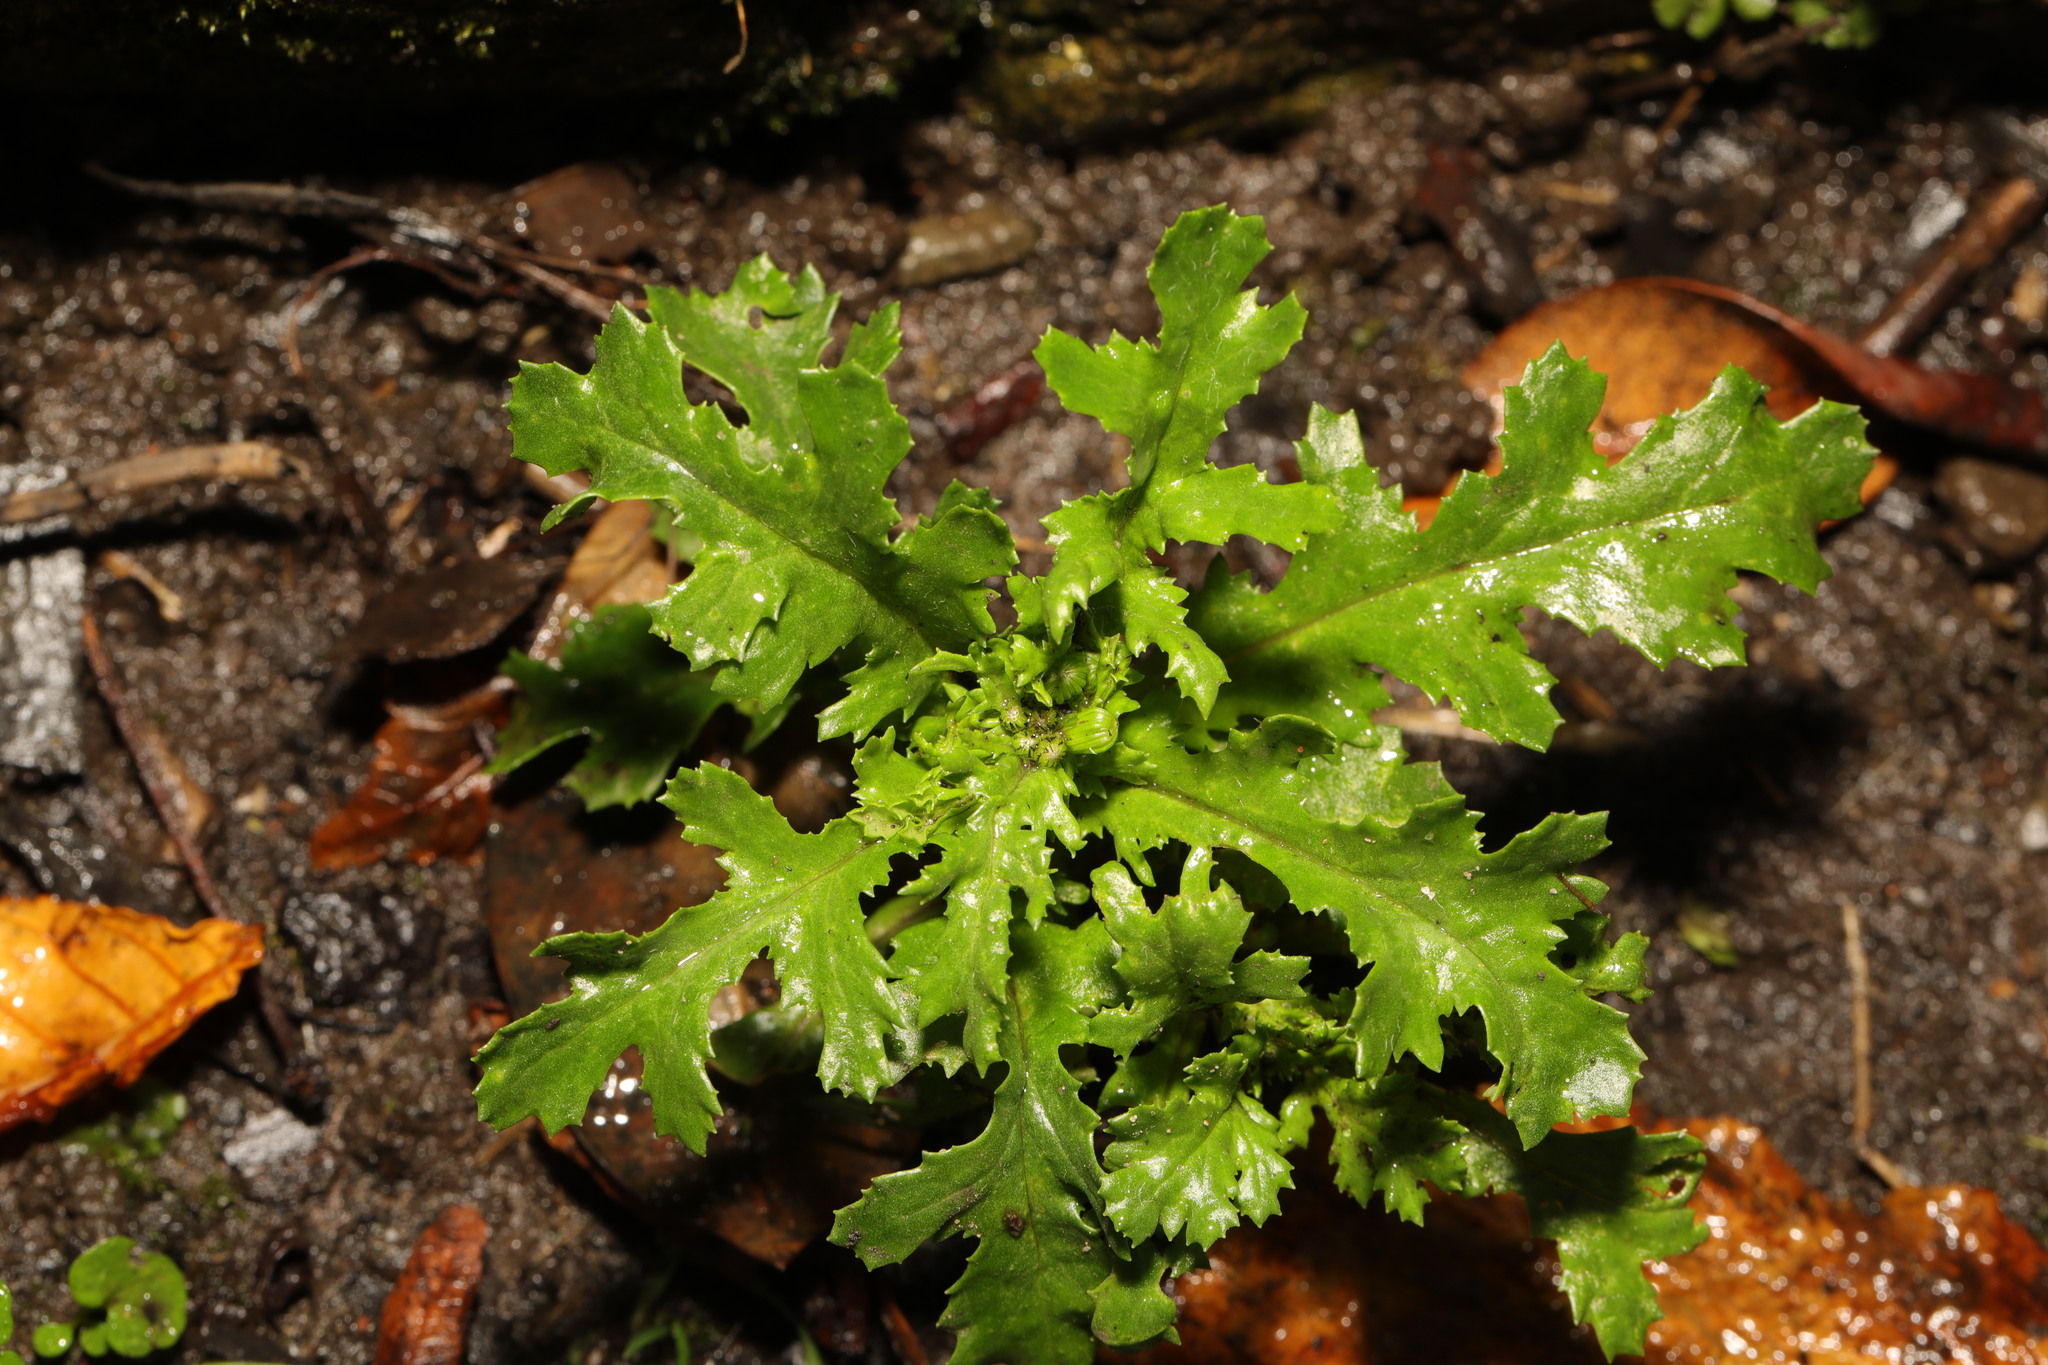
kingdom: Plantae
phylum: Tracheophyta
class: Magnoliopsida
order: Asterales
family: Asteraceae
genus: Senecio
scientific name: Senecio vulgaris
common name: Old-man-in-the-spring
